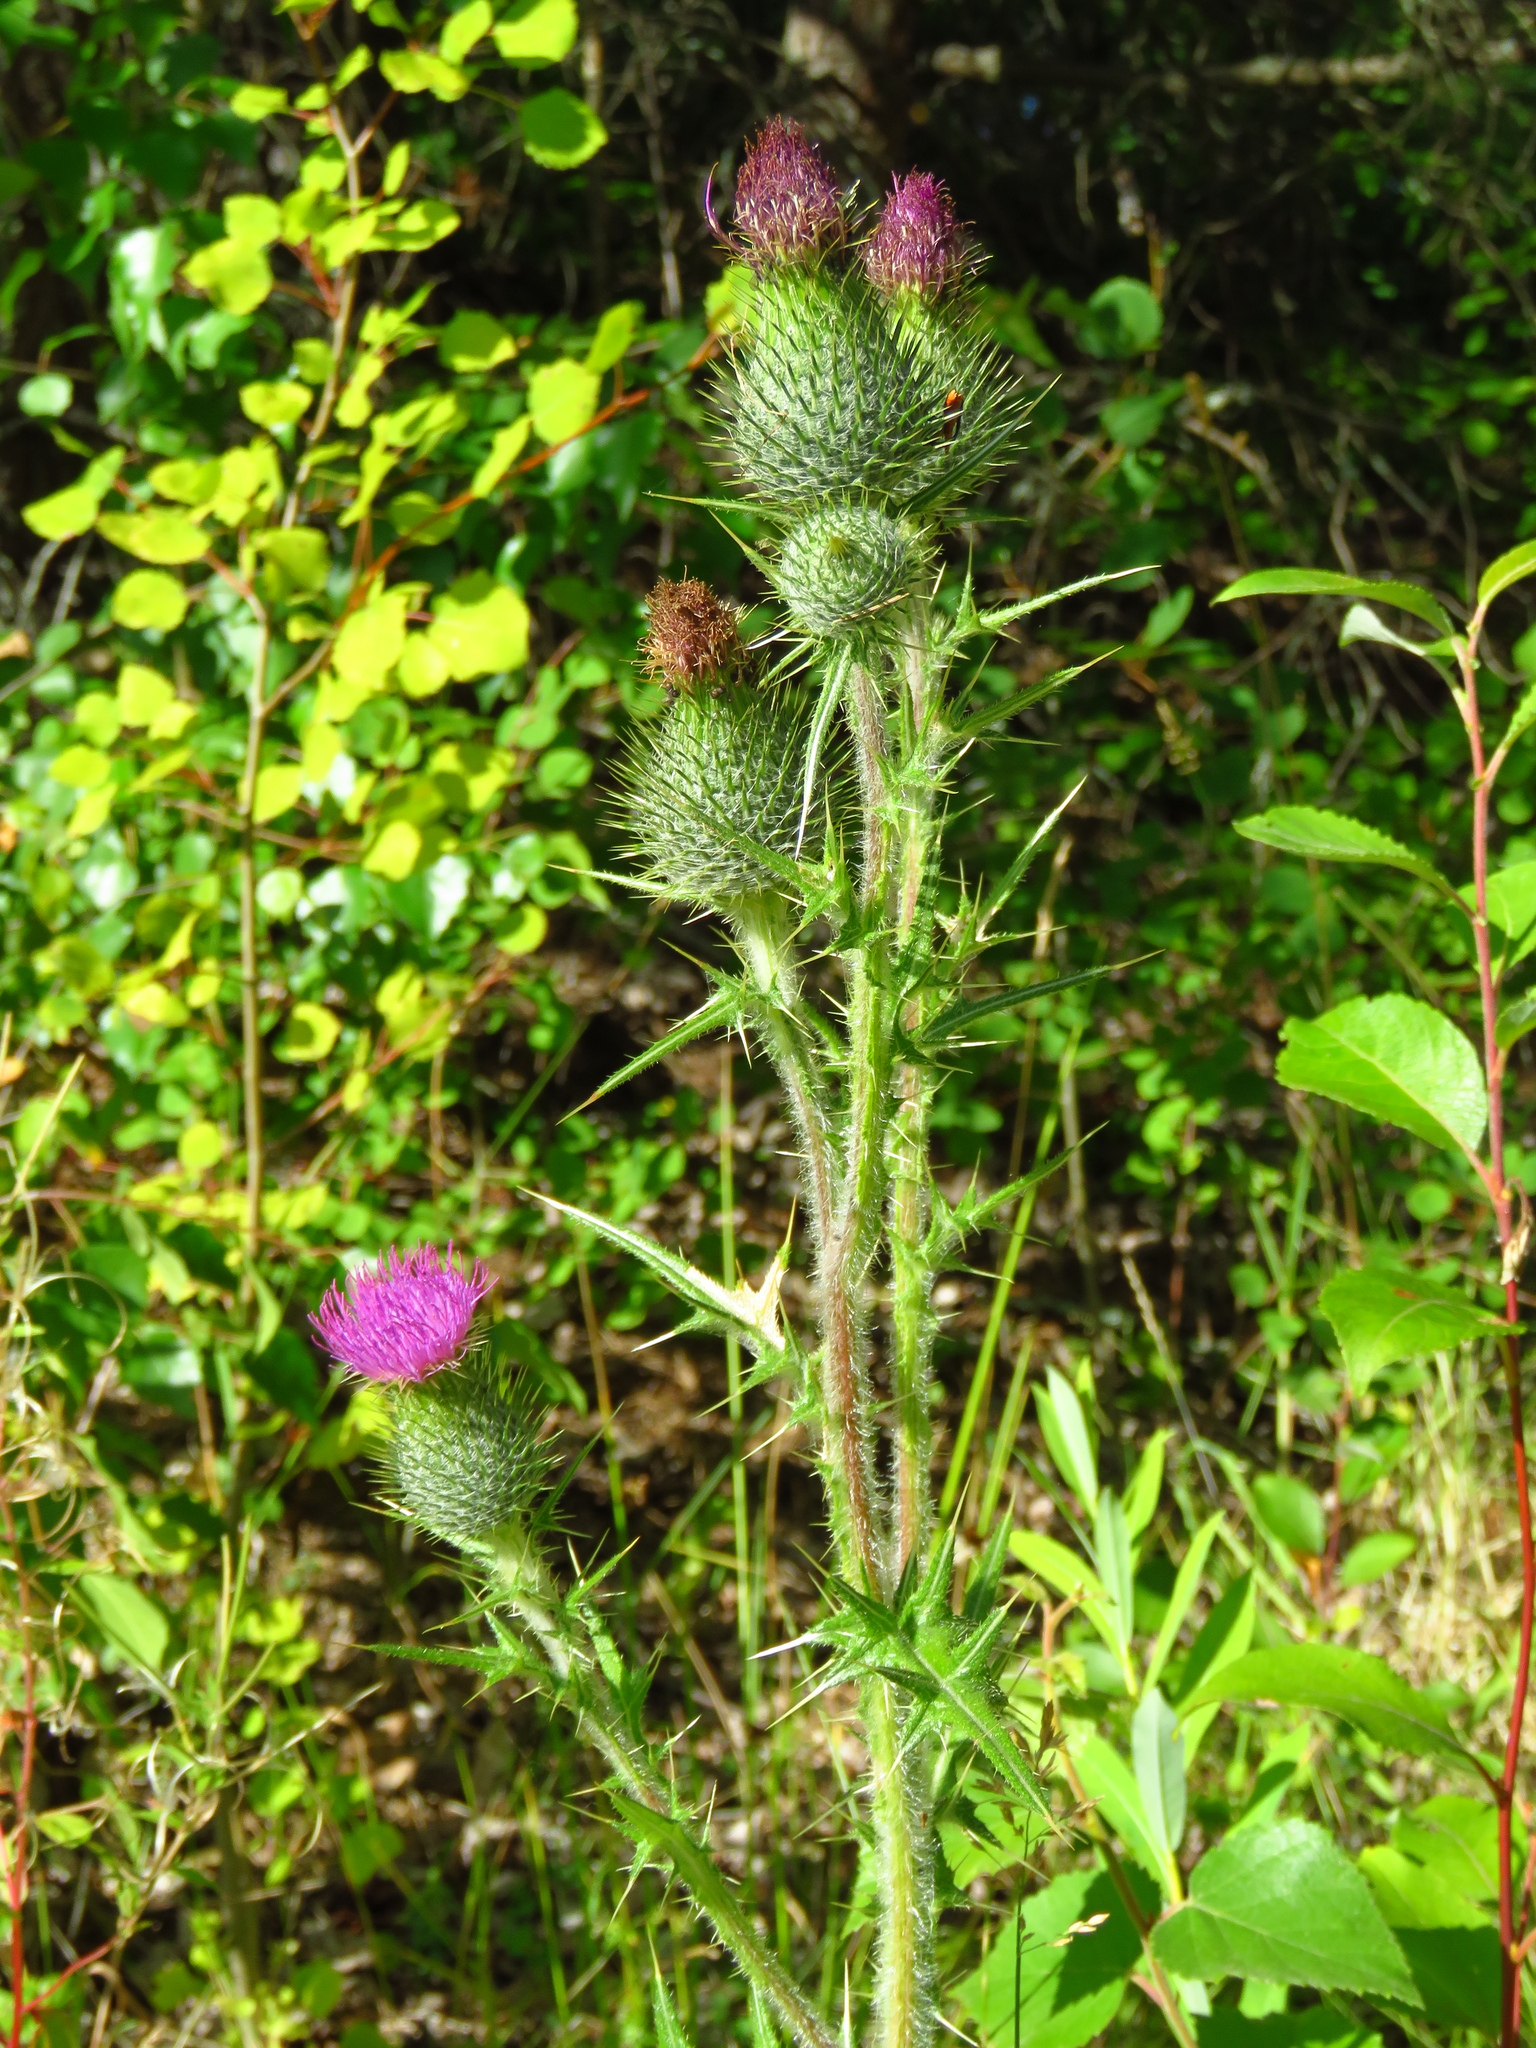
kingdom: Plantae
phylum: Tracheophyta
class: Magnoliopsida
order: Asterales
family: Asteraceae
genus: Cirsium
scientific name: Cirsium vulgare
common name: Bull thistle
